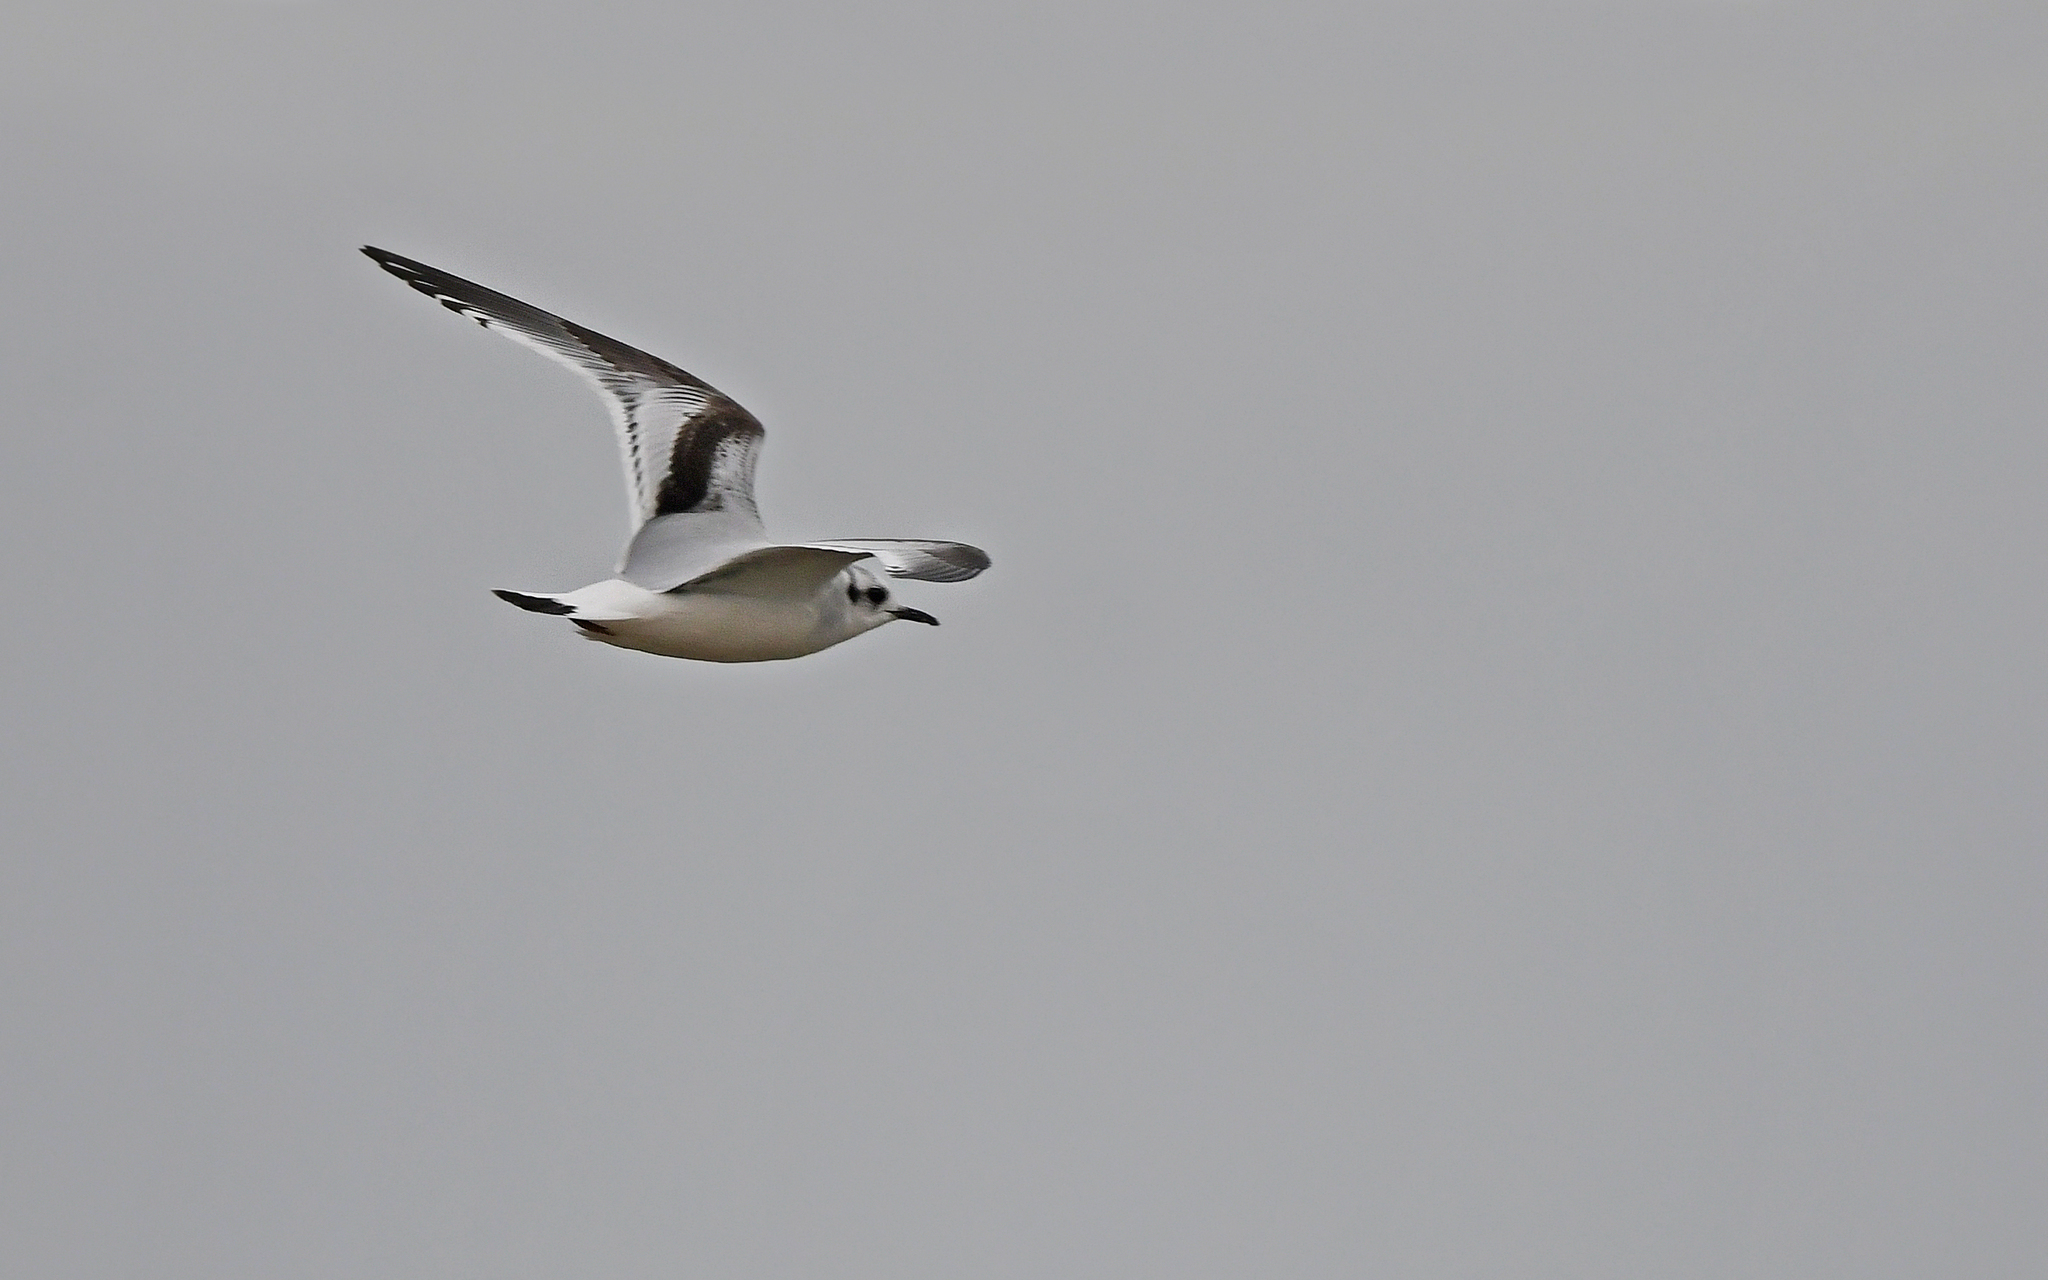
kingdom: Animalia
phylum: Chordata
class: Aves
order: Charadriiformes
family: Laridae
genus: Hydrocoloeus
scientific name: Hydrocoloeus minutus
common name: Little gull
